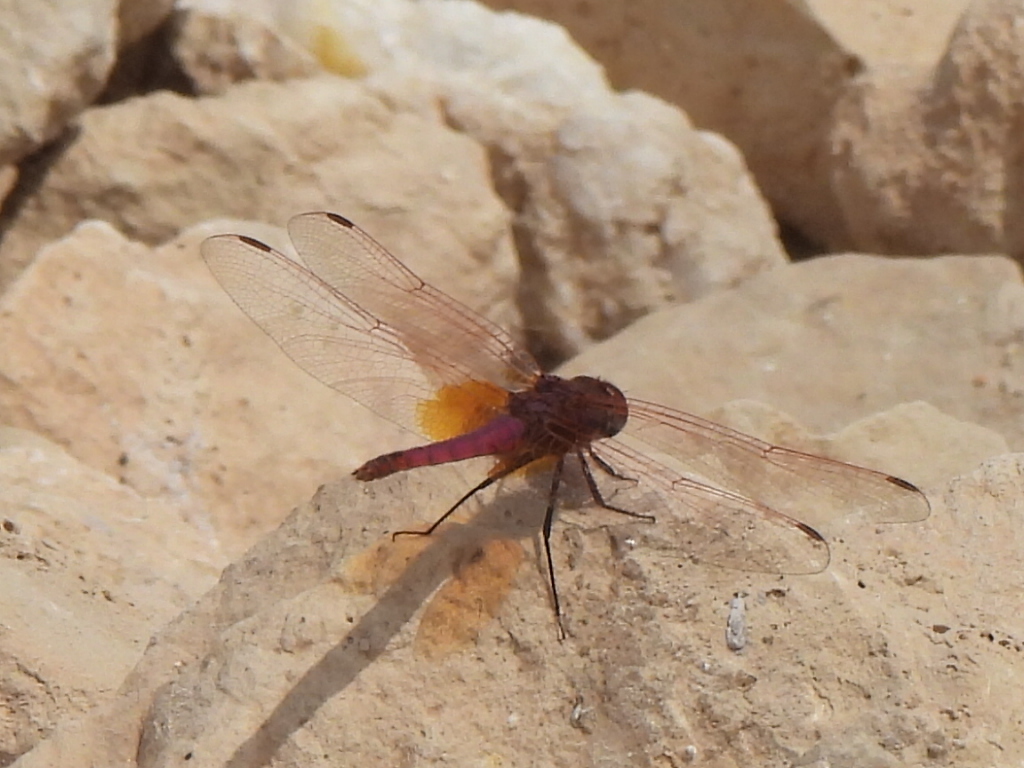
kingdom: Animalia
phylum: Arthropoda
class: Insecta
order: Odonata
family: Libellulidae
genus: Trithemis
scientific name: Trithemis annulata
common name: Violet dropwing
